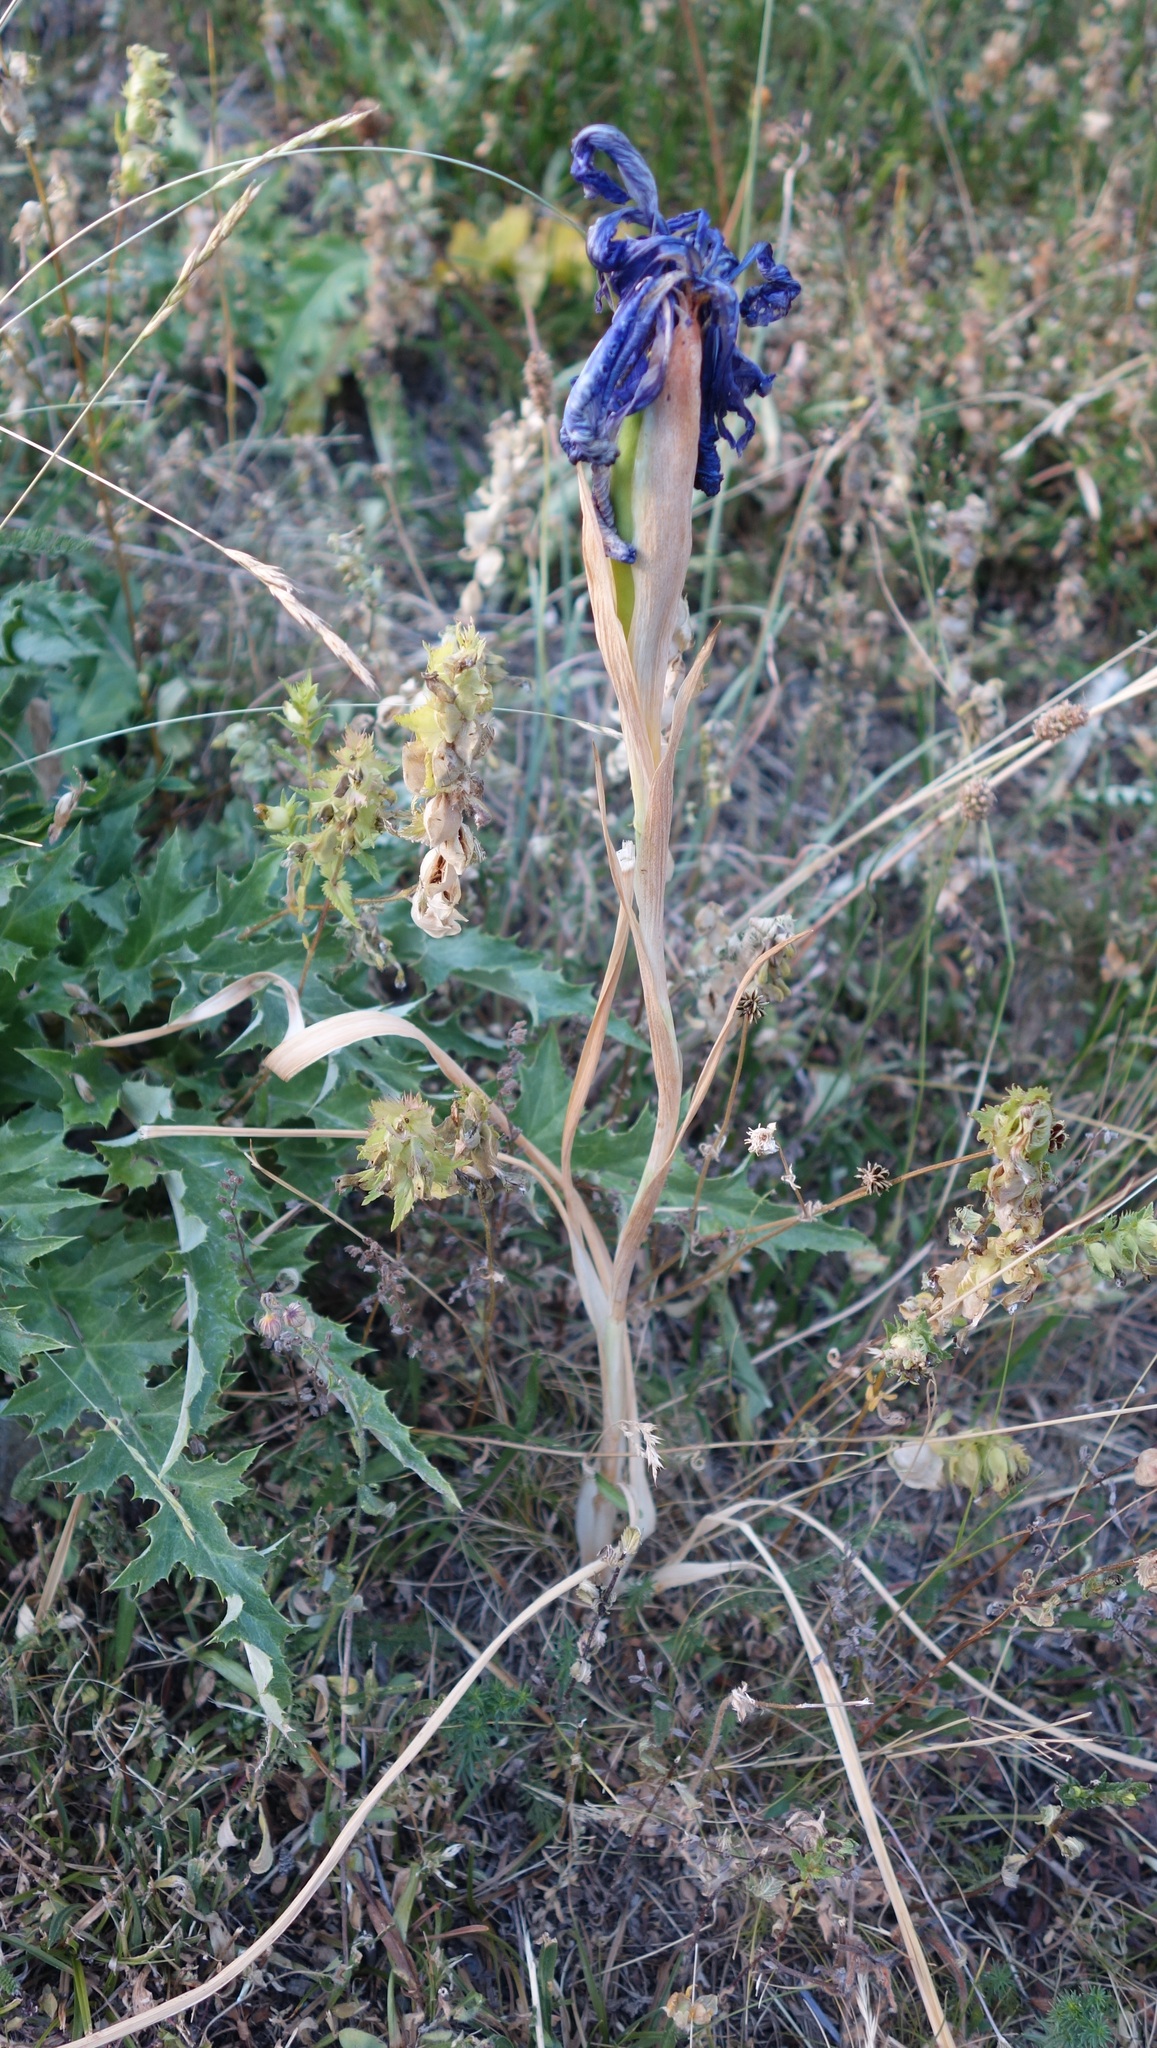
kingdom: Plantae
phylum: Tracheophyta
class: Liliopsida
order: Asparagales
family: Iridaceae
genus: Iris
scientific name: Iris
